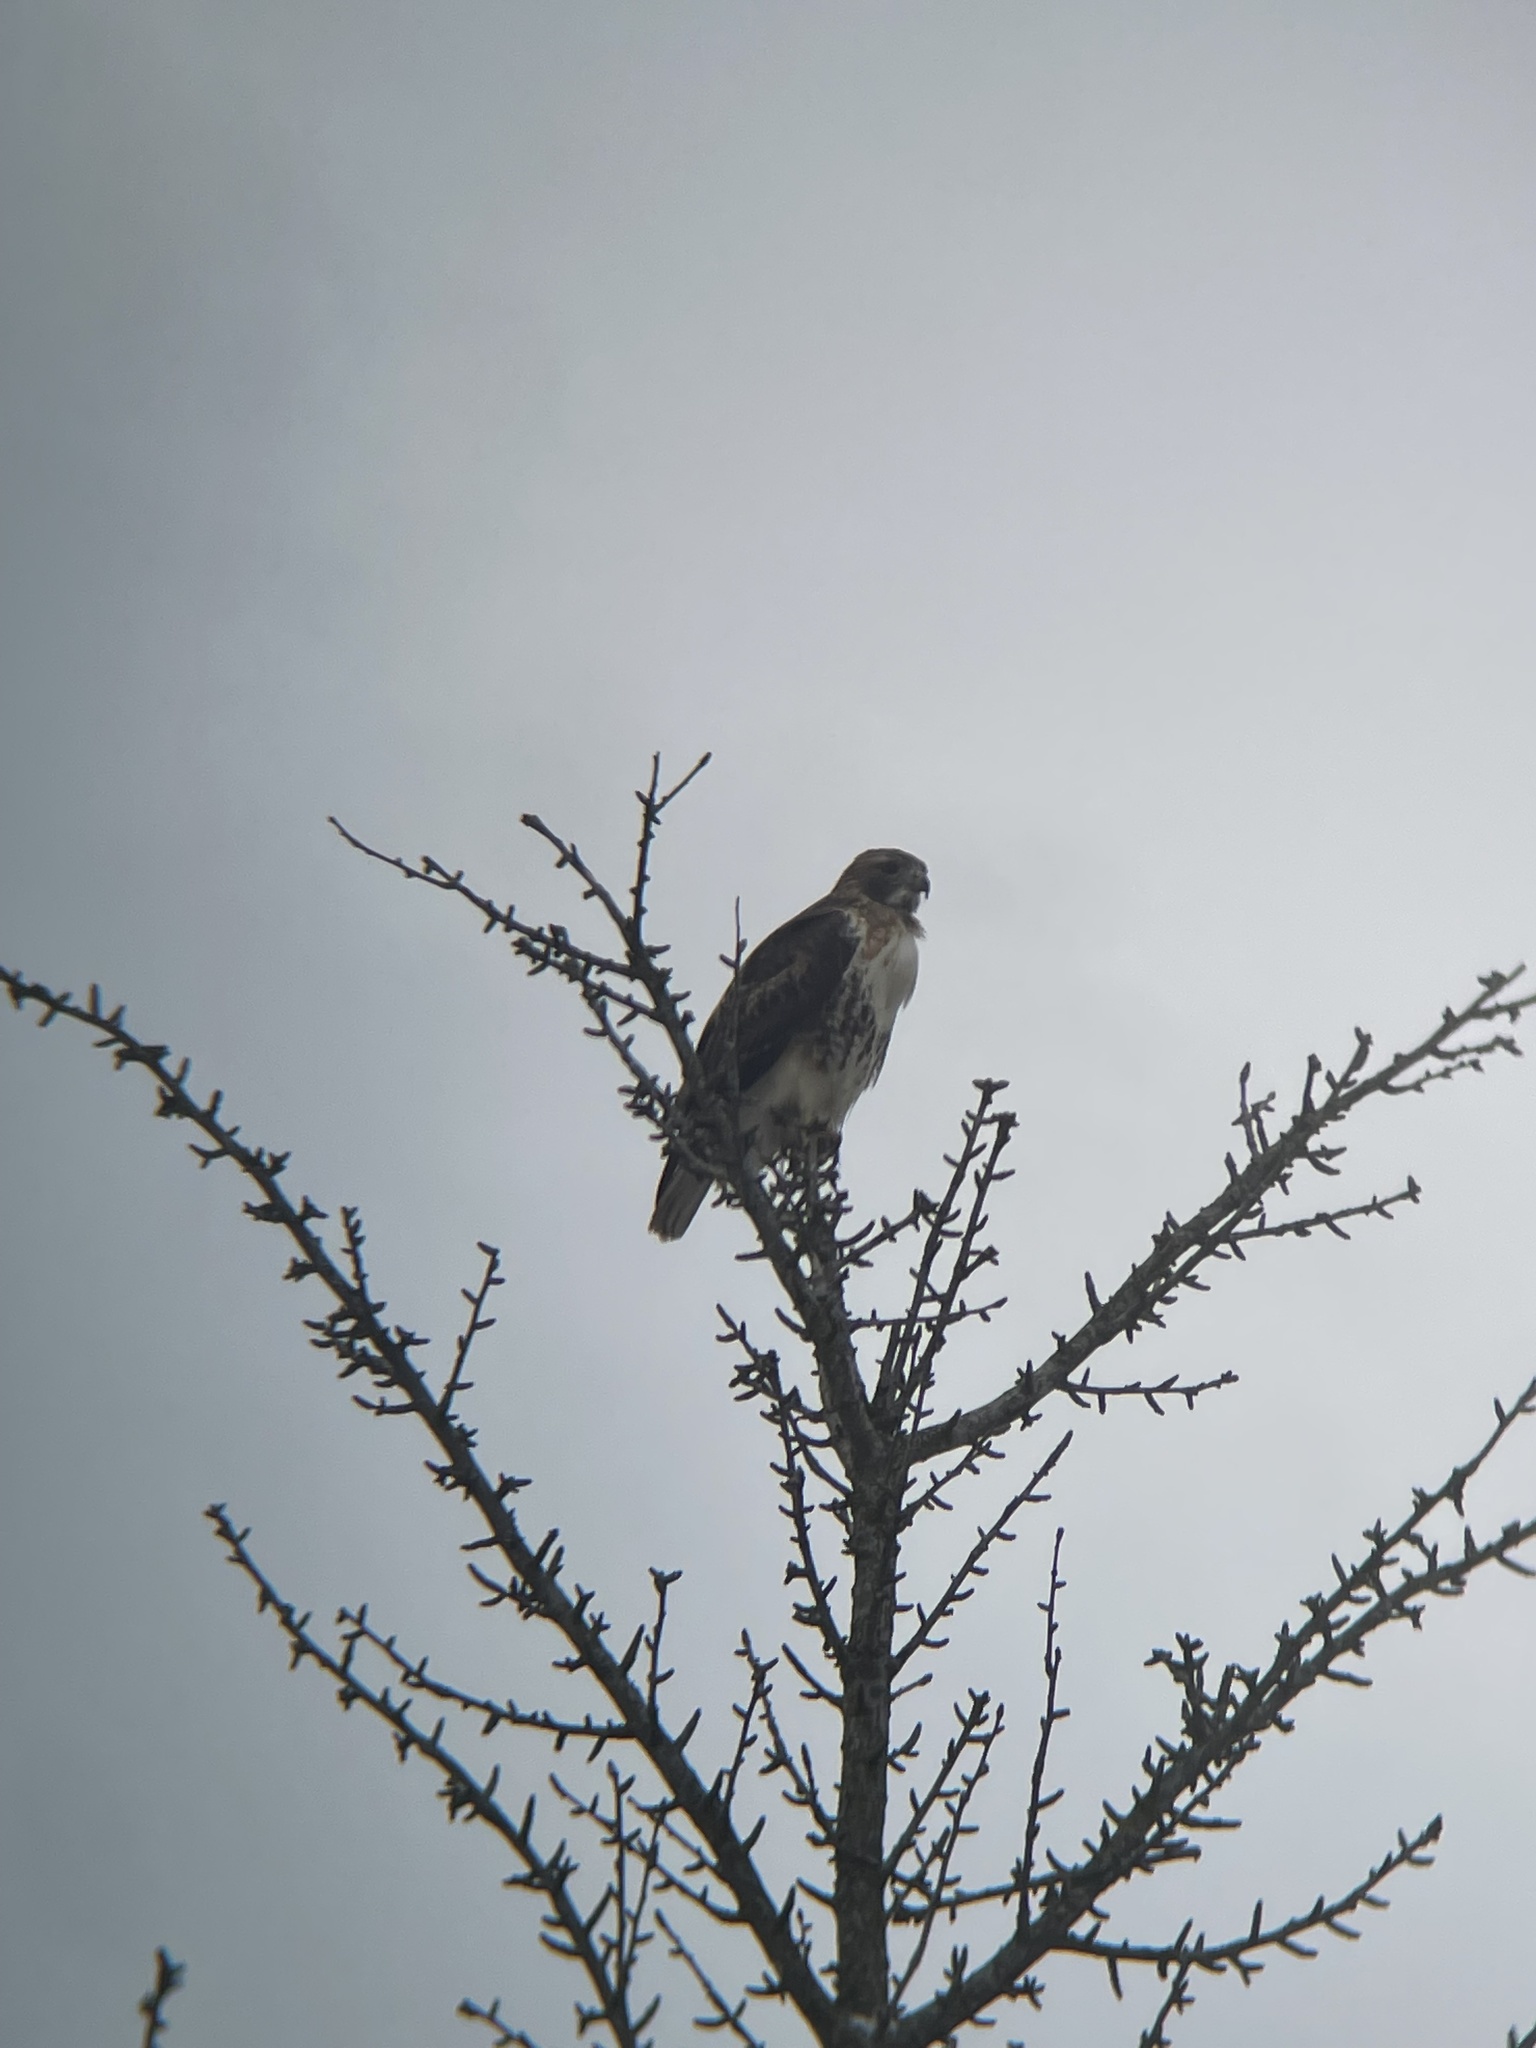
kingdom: Animalia
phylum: Chordata
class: Aves
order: Accipitriformes
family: Accipitridae
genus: Buteo
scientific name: Buteo jamaicensis
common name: Red-tailed hawk
